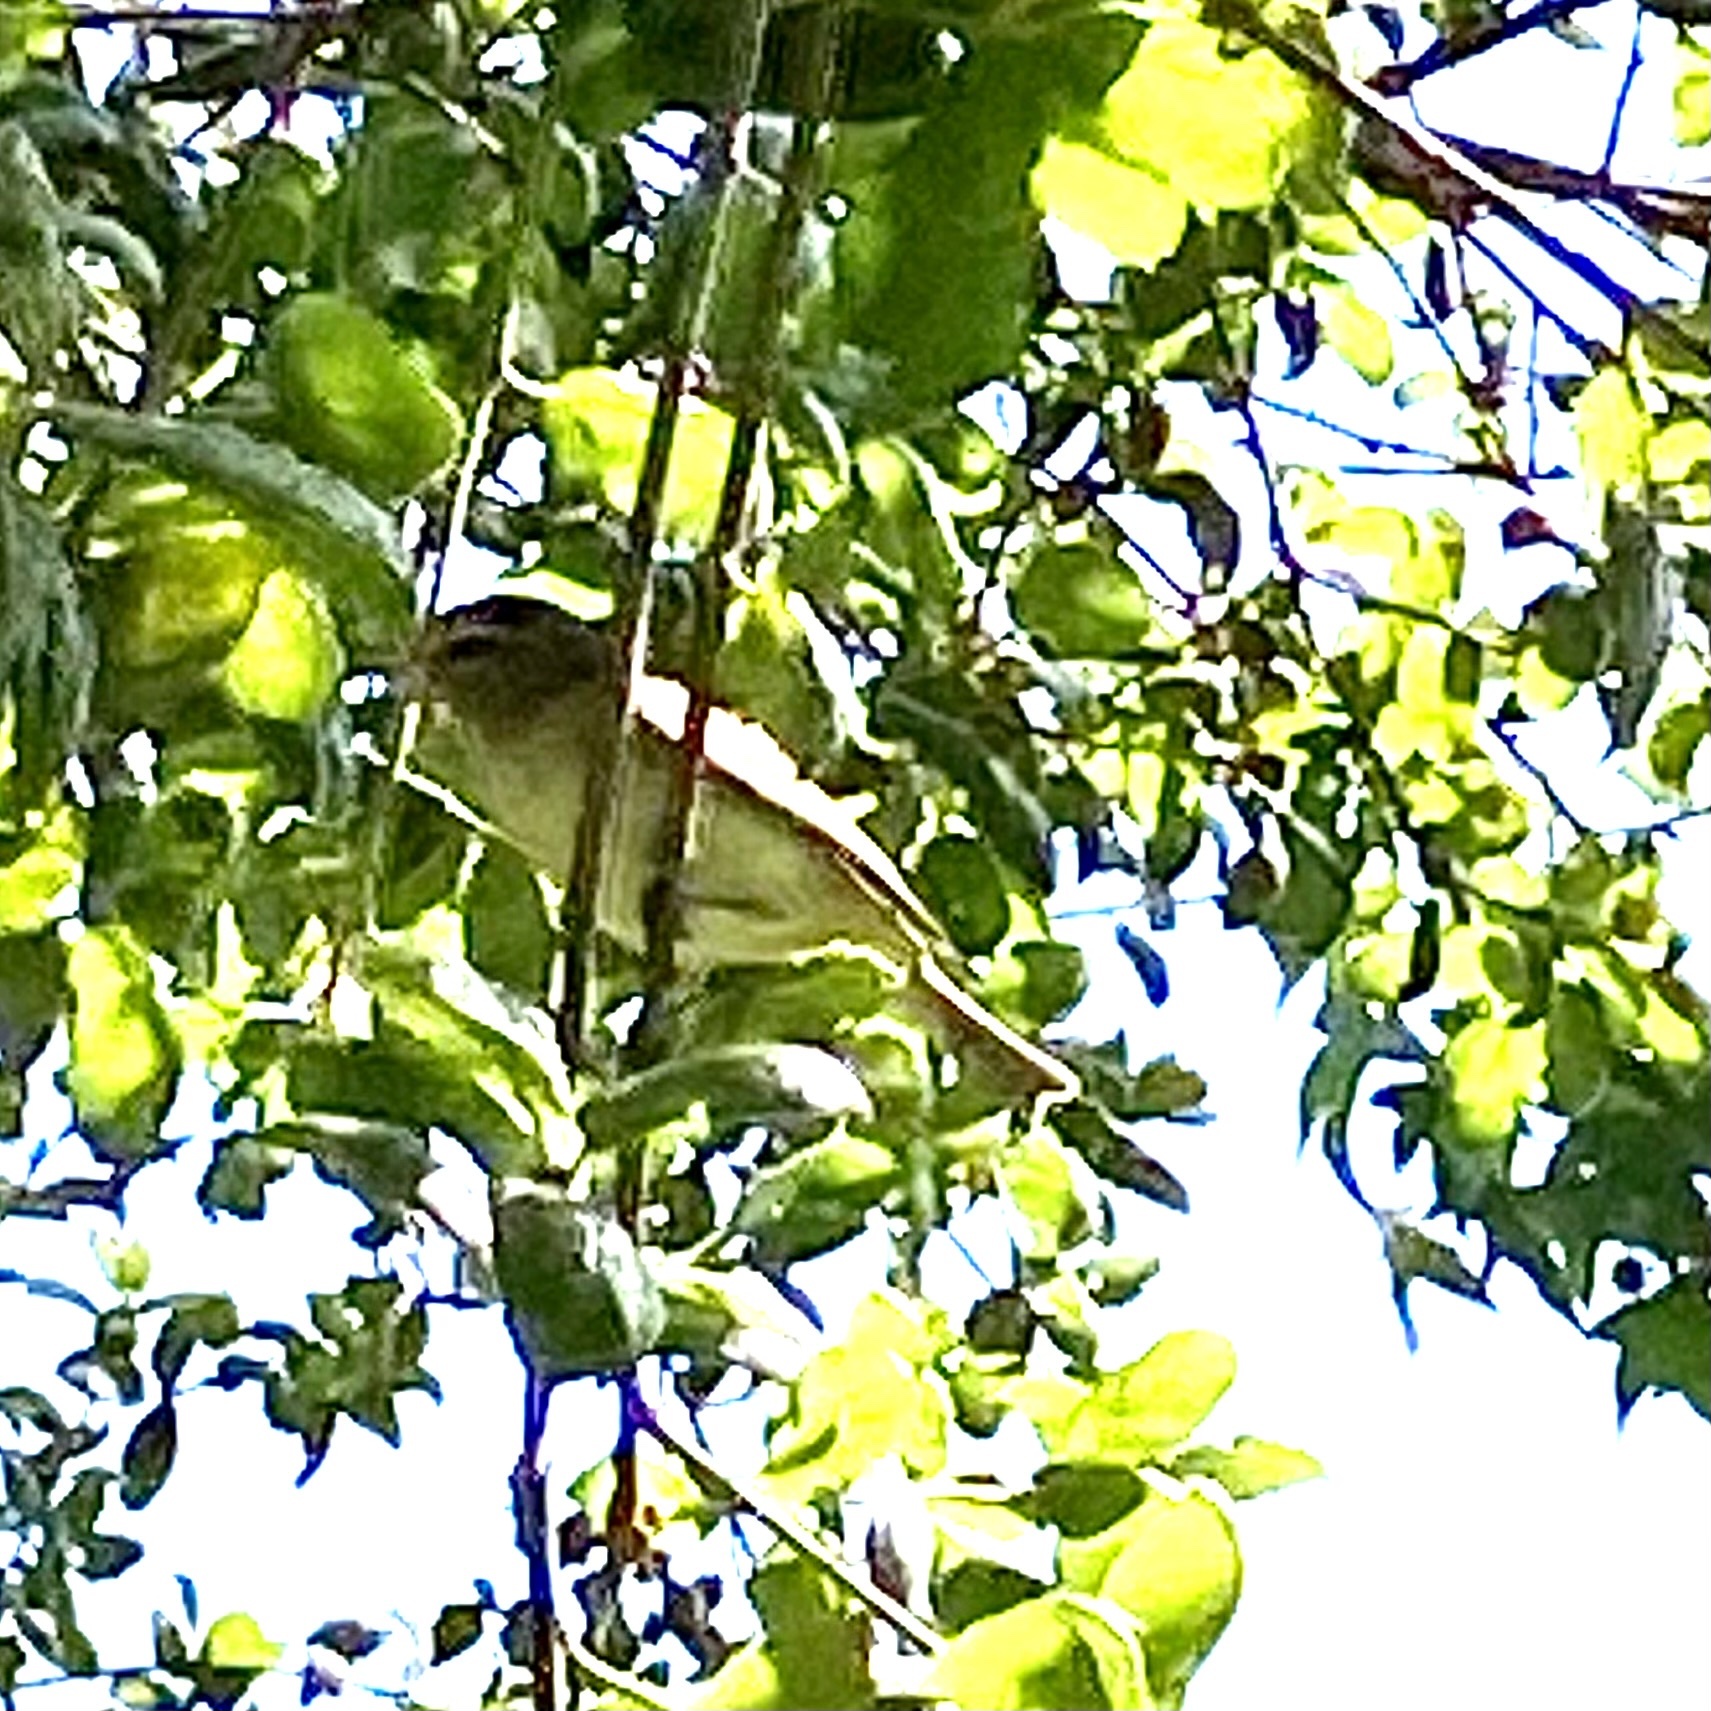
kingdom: Animalia
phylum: Chordata
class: Aves
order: Passeriformes
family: Vireonidae
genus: Vireo
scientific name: Vireo gilvus
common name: Warbling vireo
